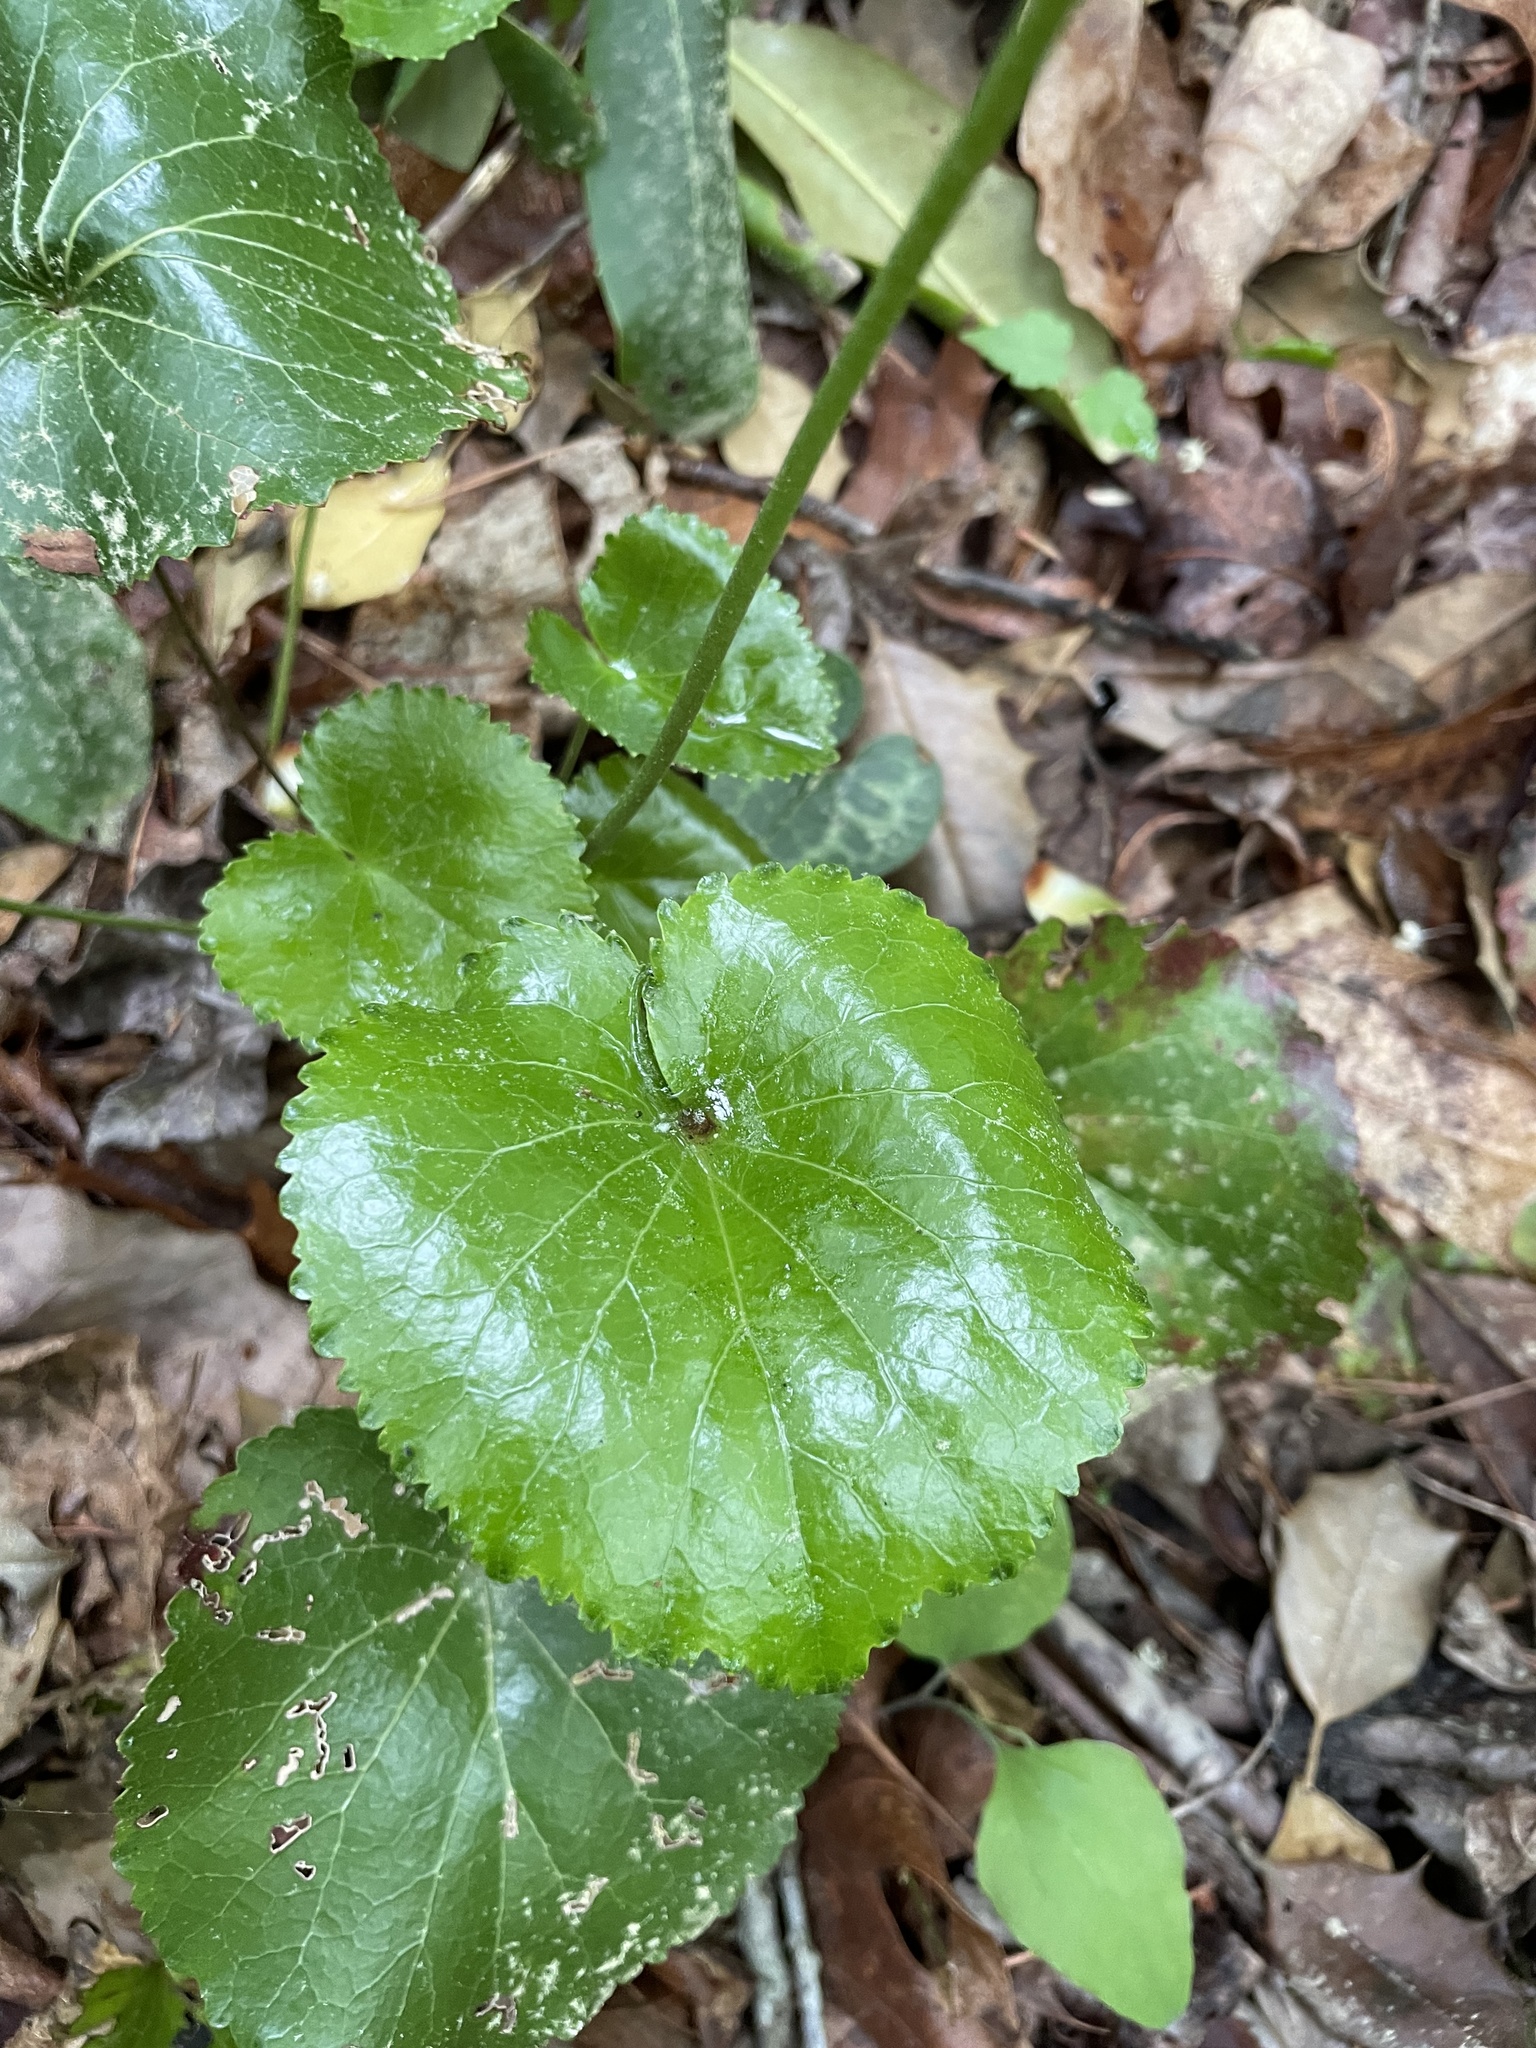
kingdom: Plantae
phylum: Tracheophyta
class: Magnoliopsida
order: Ericales
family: Diapensiaceae
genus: Galax
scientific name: Galax urceolata
